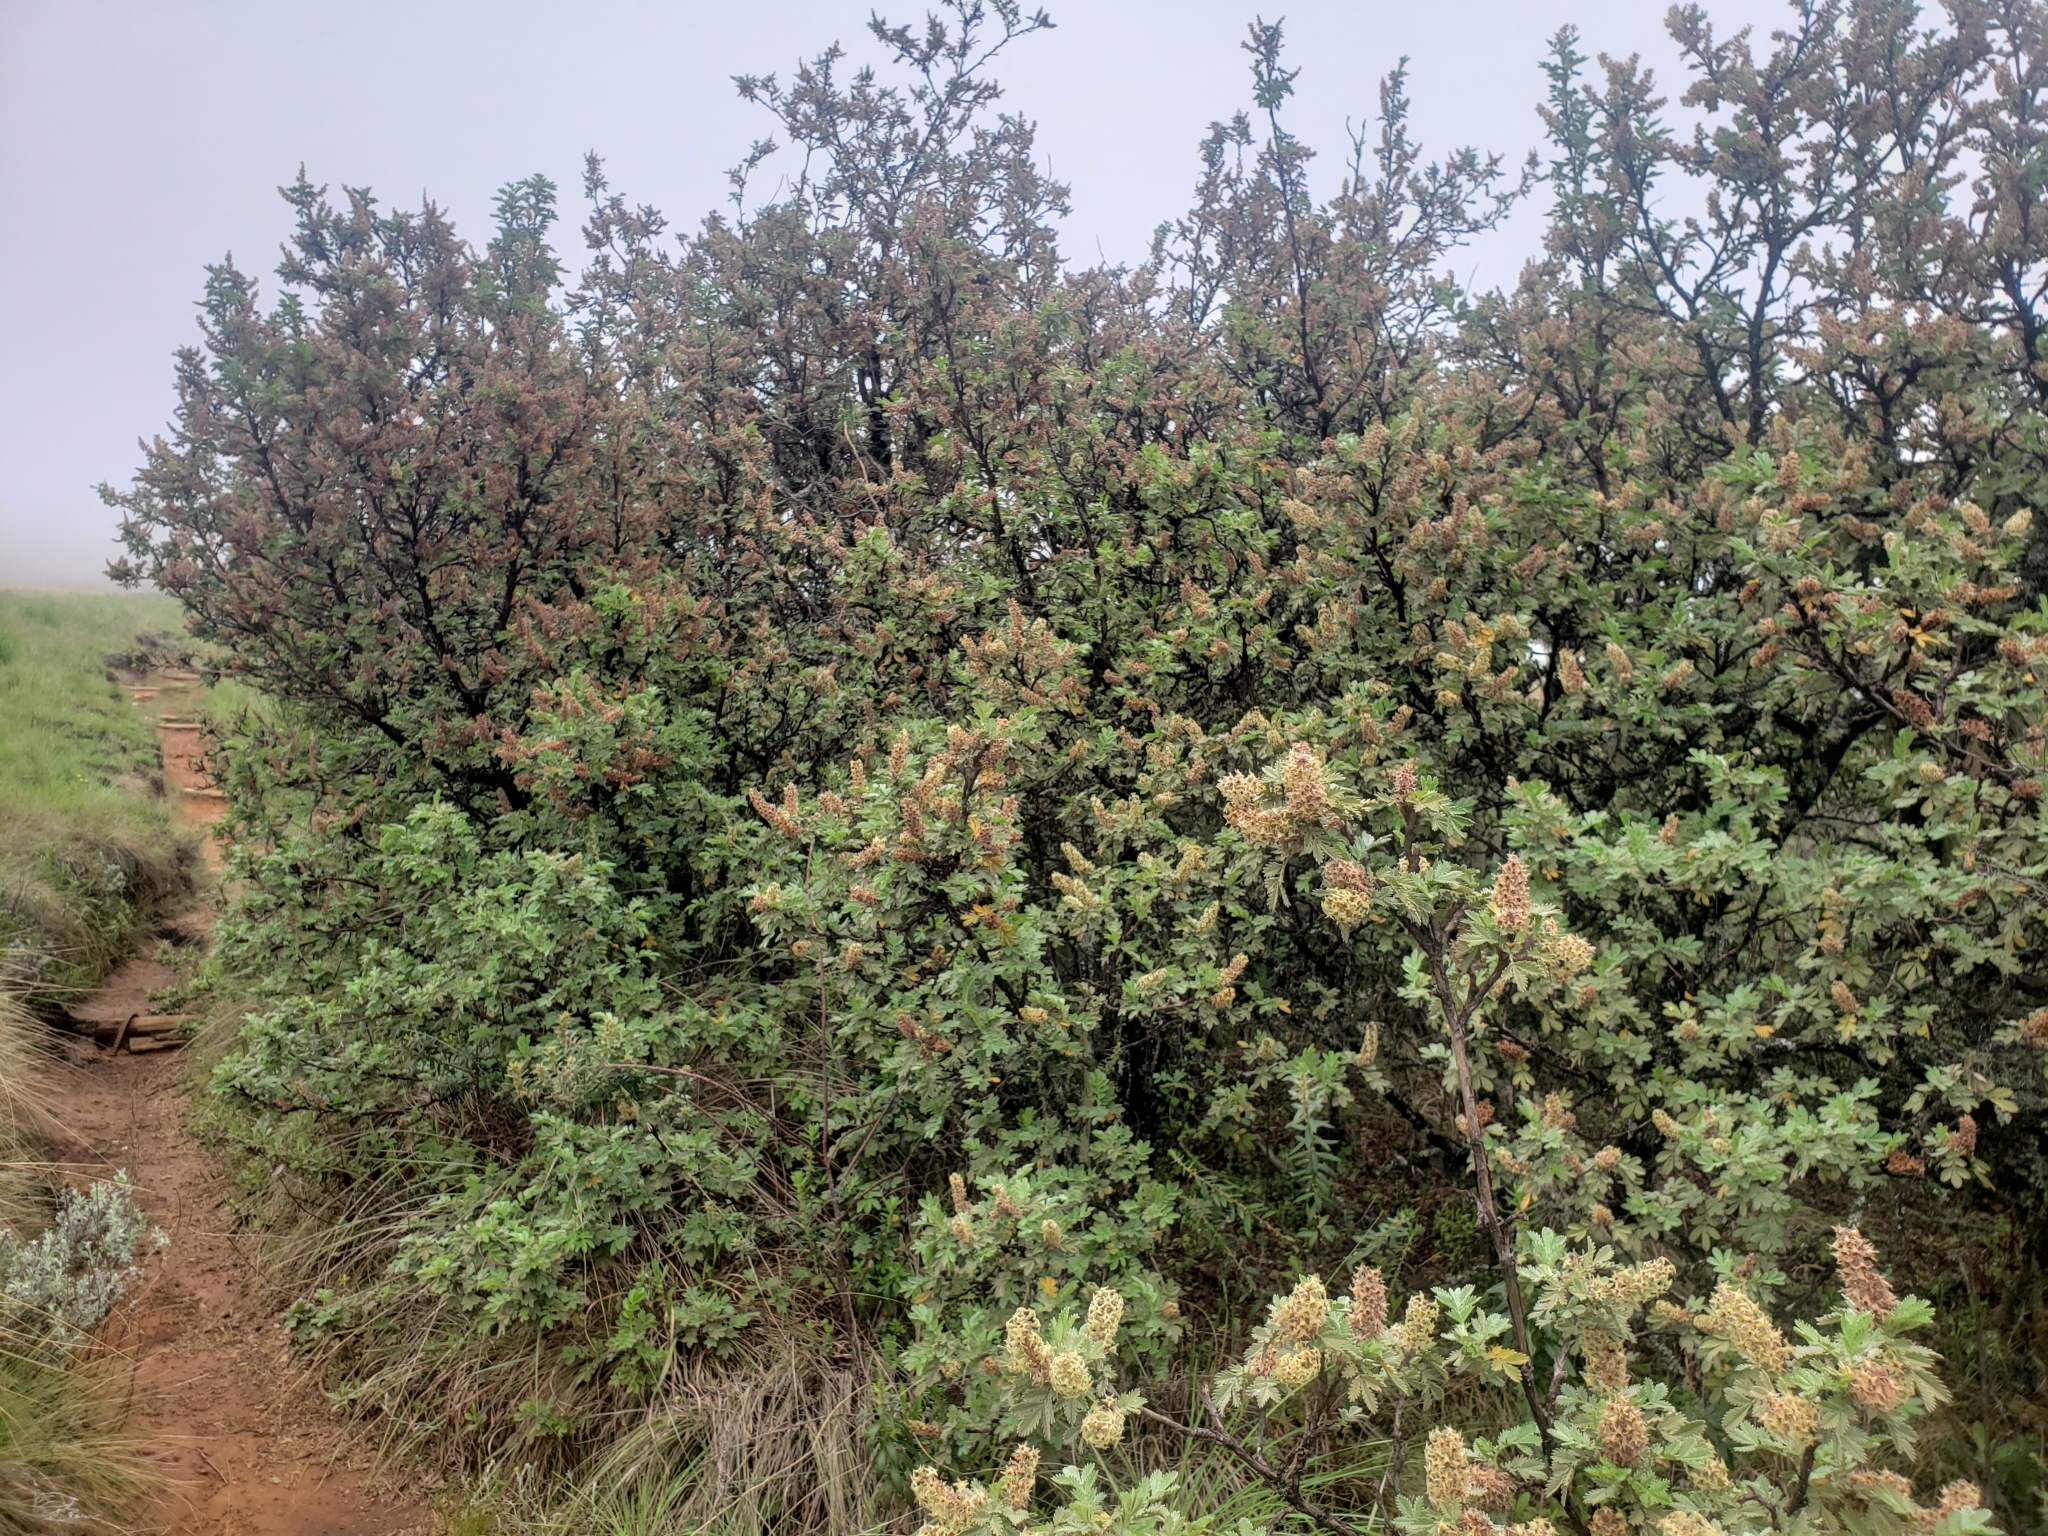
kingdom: Plantae
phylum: Tracheophyta
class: Magnoliopsida
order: Rosales
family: Rosaceae
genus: Leucosidea
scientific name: Leucosidea sericea
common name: Oldwood
